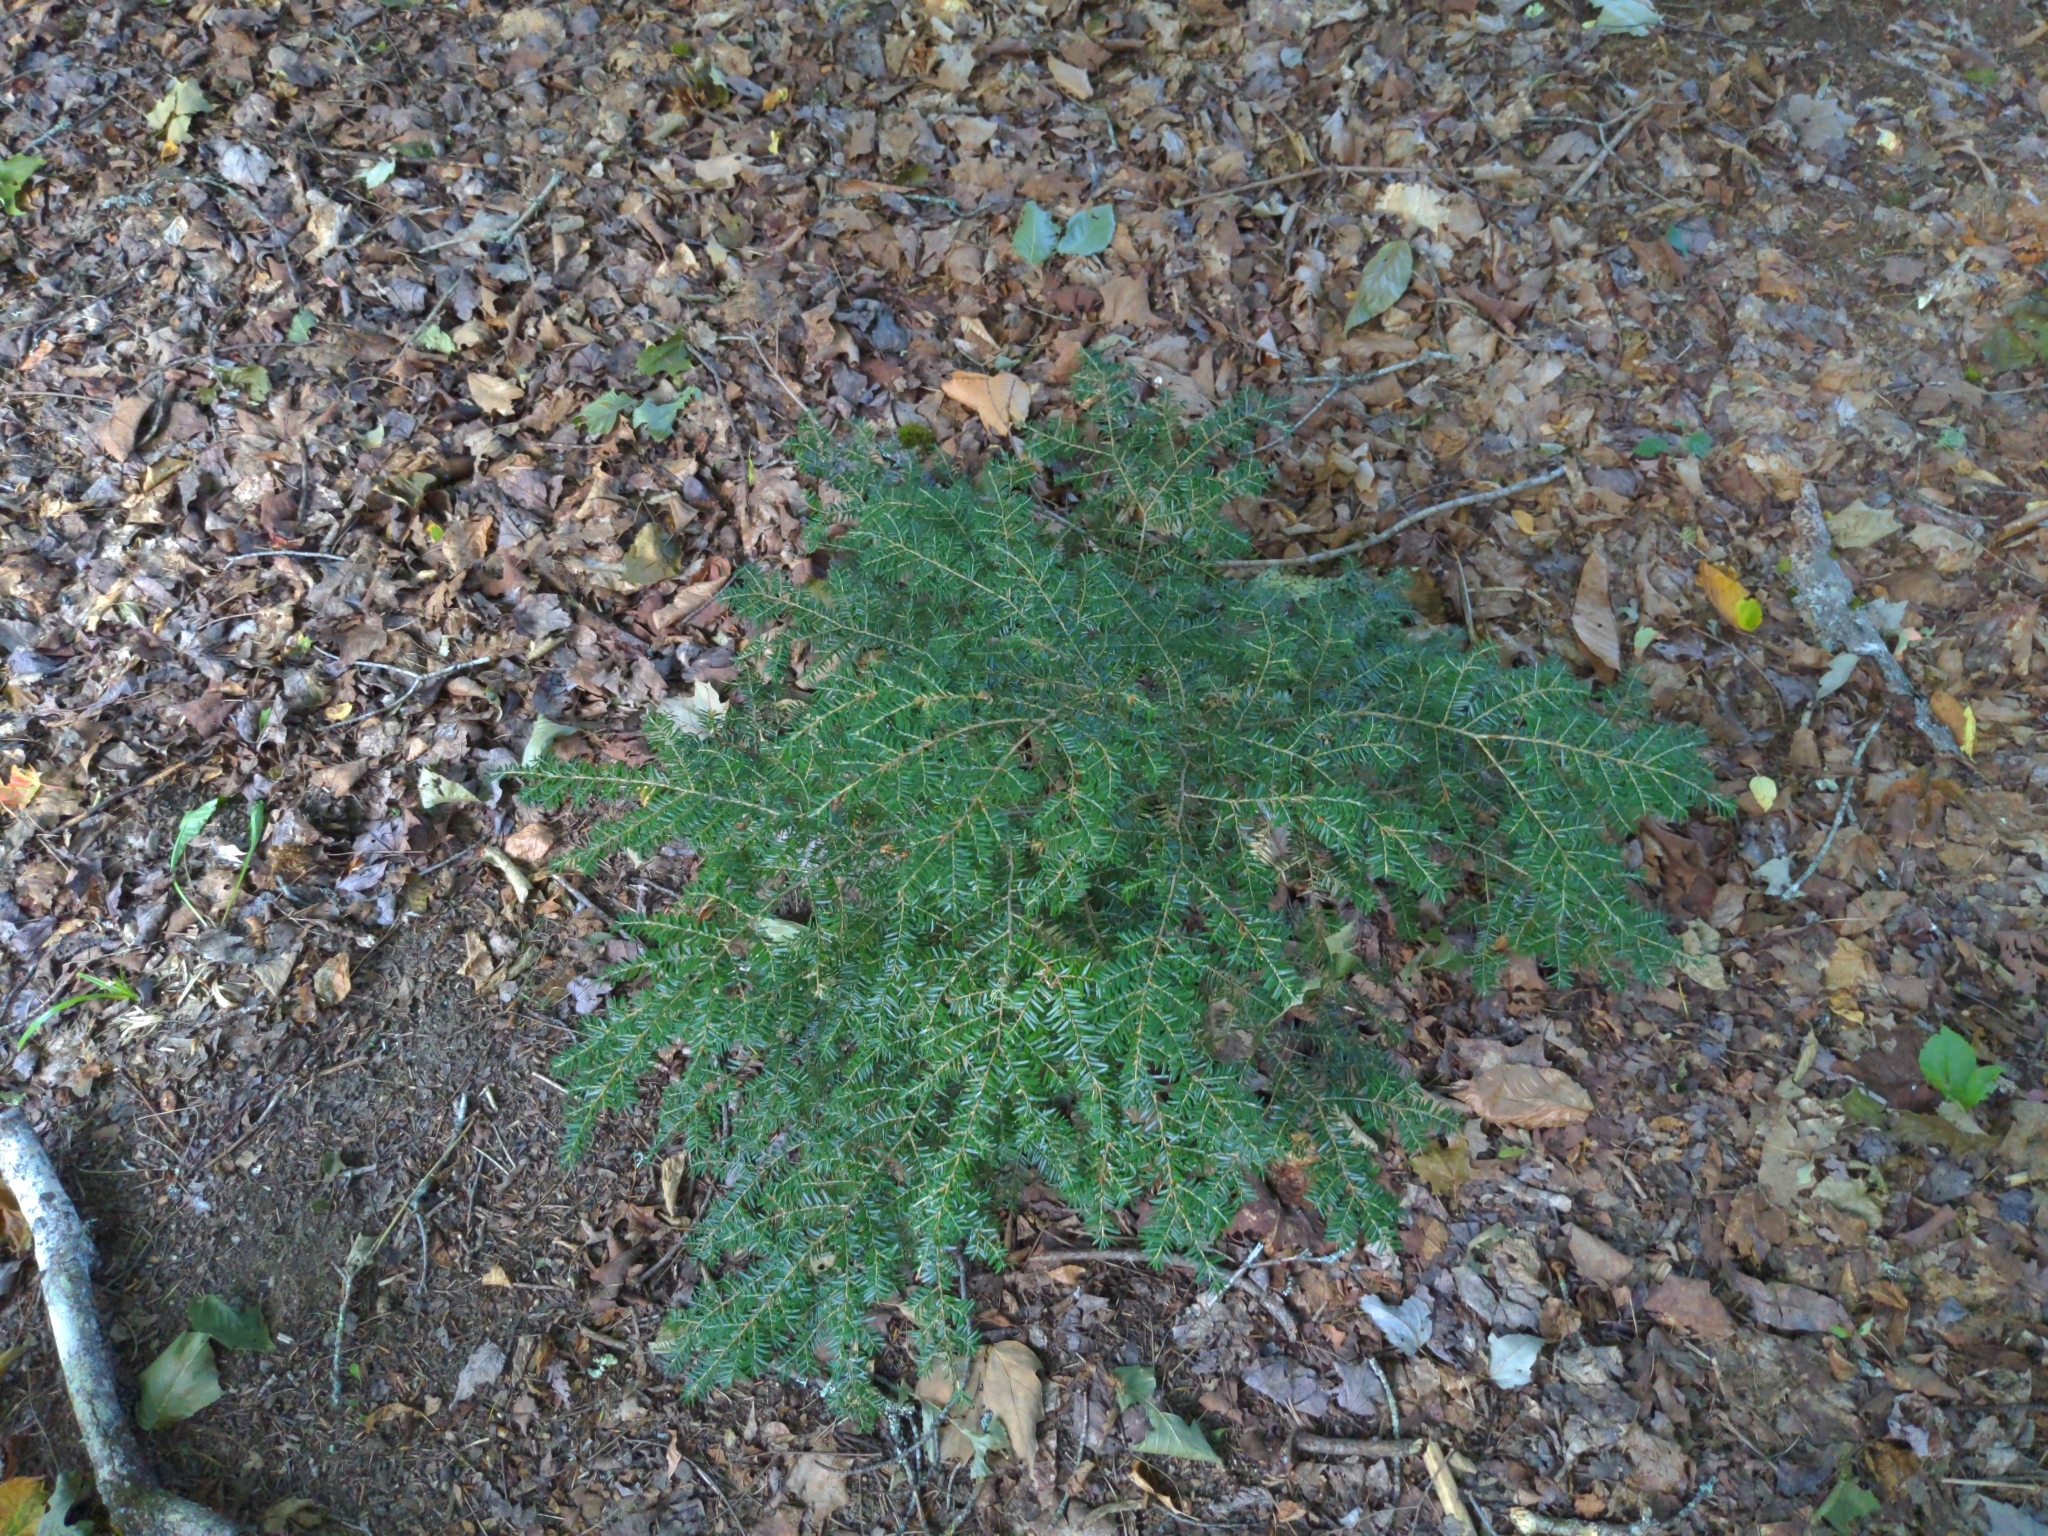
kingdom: Plantae
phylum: Tracheophyta
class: Pinopsida
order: Pinales
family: Pinaceae
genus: Tsuga
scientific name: Tsuga canadensis
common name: Eastern hemlock
